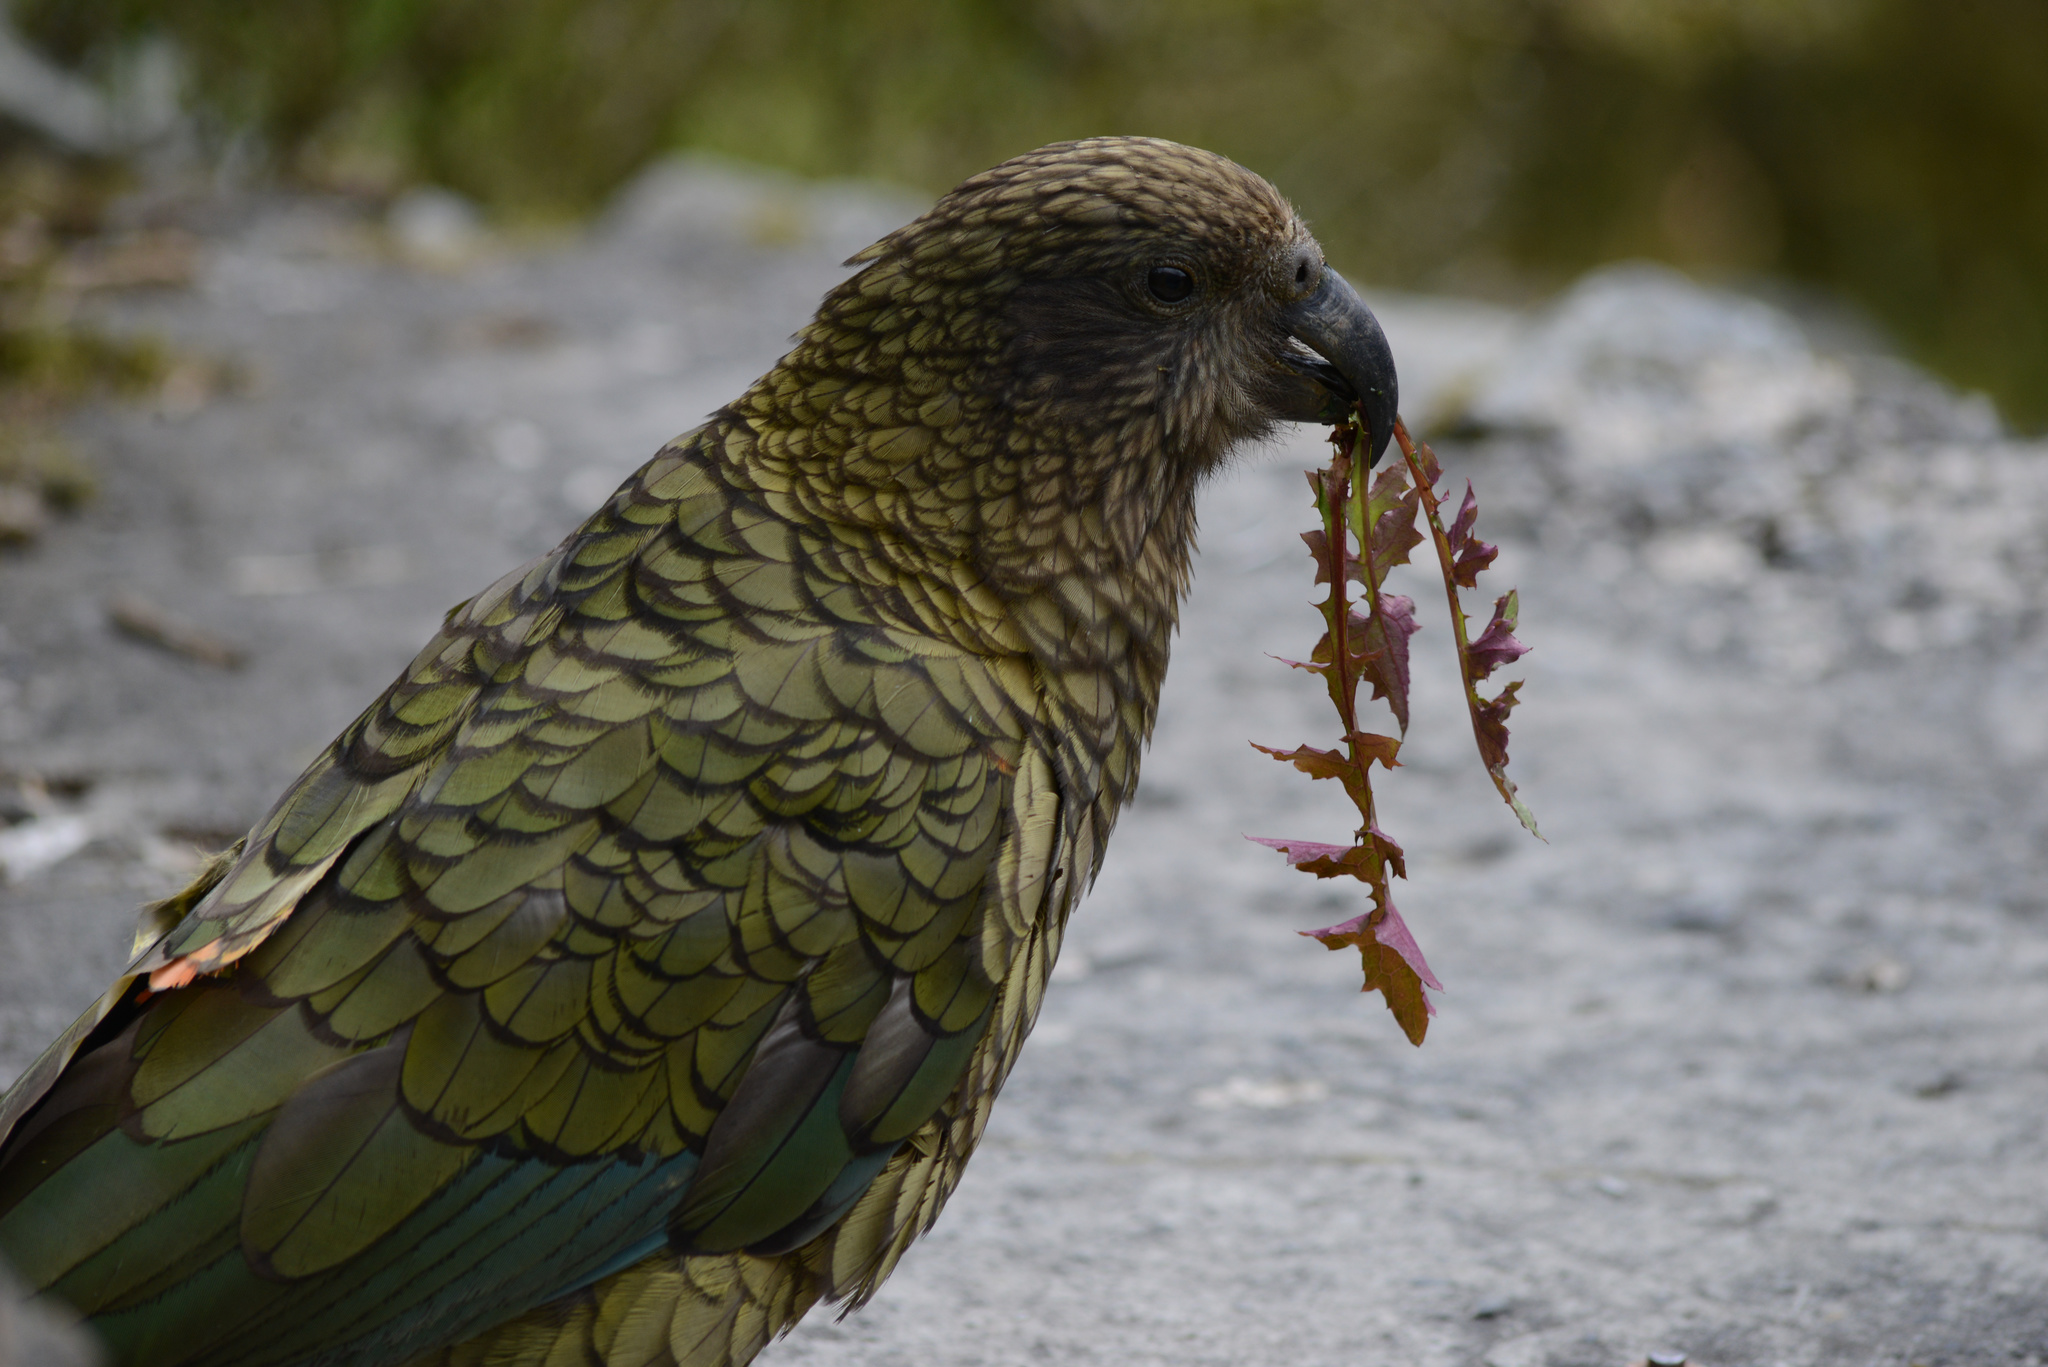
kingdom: Animalia
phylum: Chordata
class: Aves
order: Psittaciformes
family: Psittacidae
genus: Nestor
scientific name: Nestor notabilis
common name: Kea
